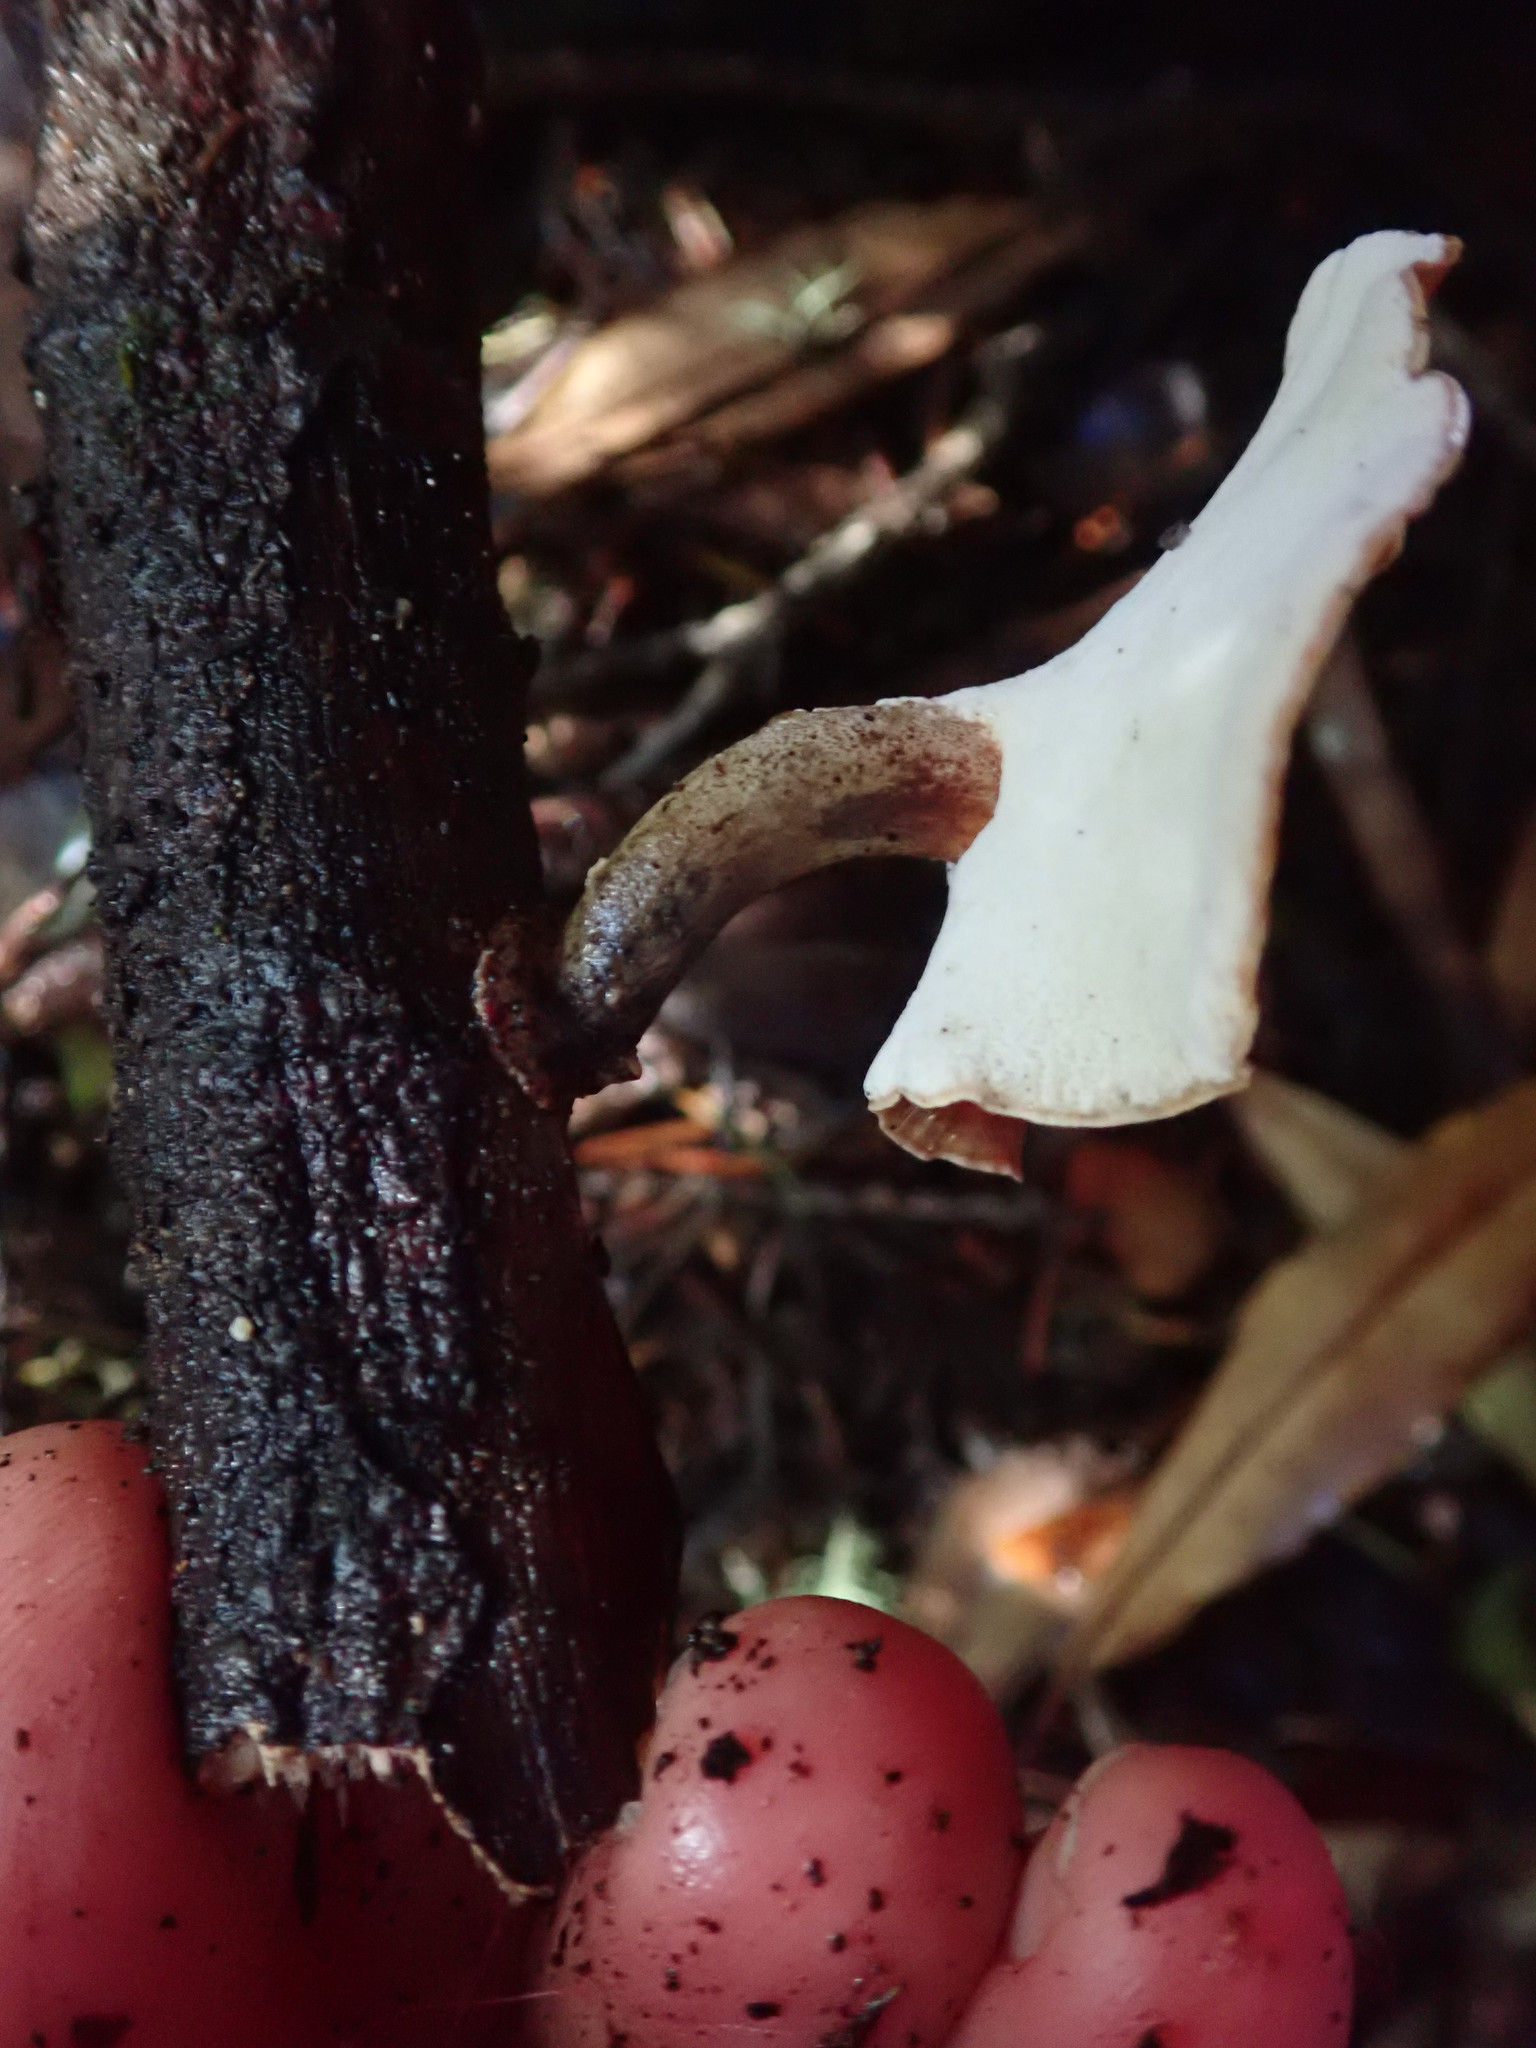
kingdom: Fungi
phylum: Basidiomycota
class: Agaricomycetes
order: Polyporales
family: Polyporaceae
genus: Picipes
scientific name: Picipes badius
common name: Bay polypore
